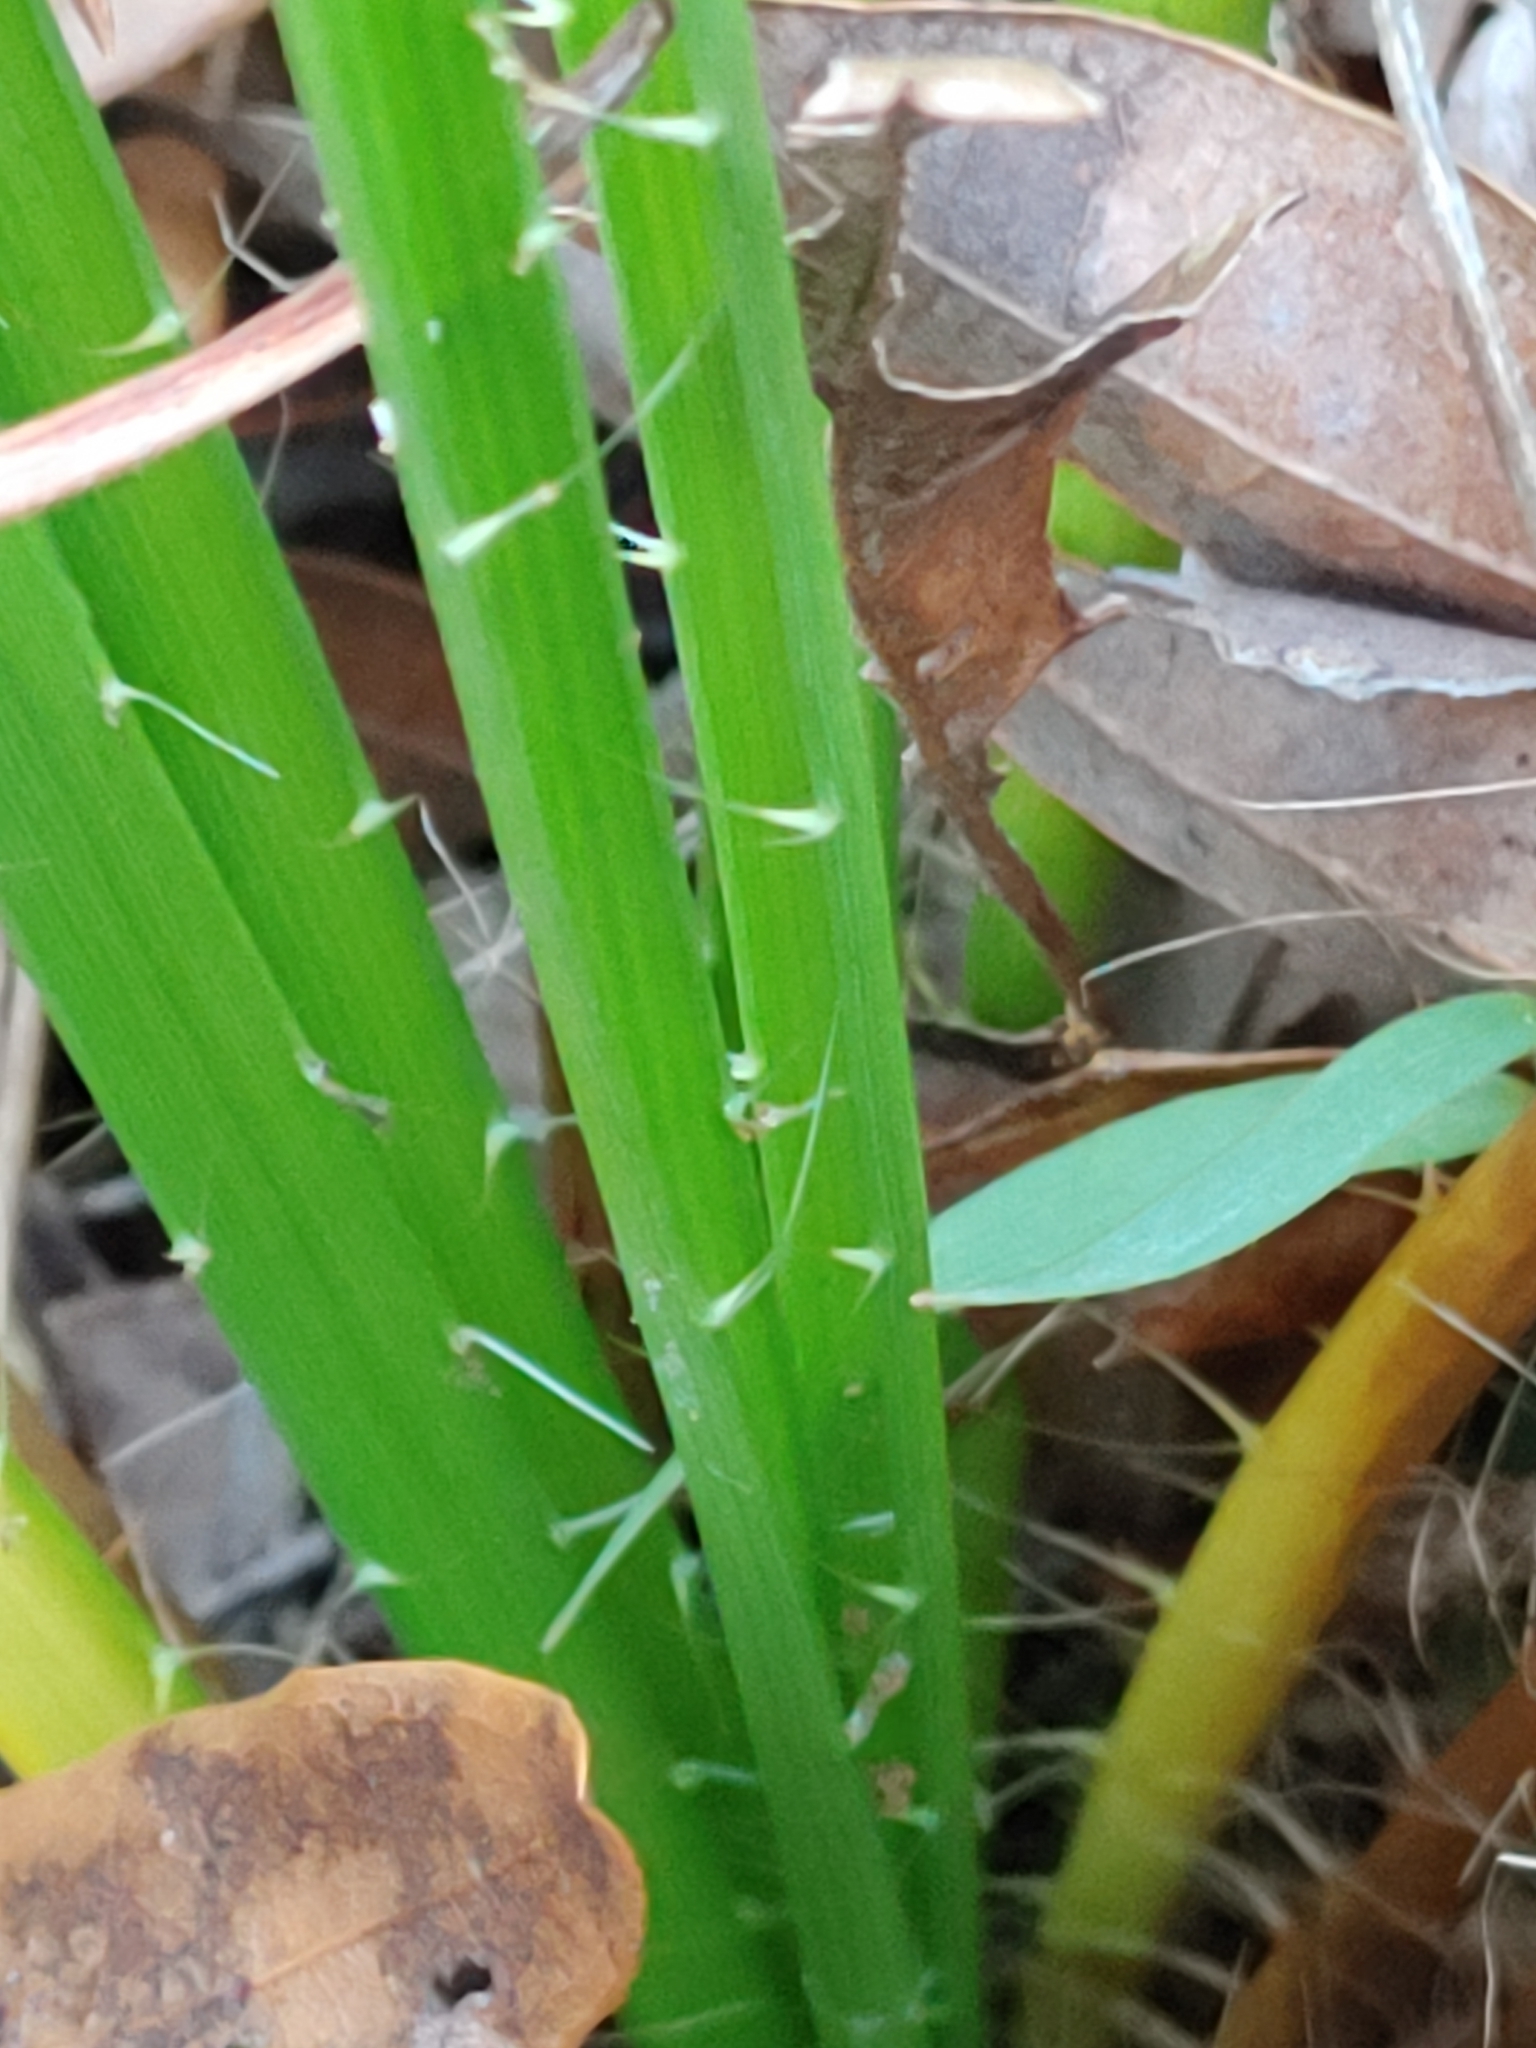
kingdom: Plantae
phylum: Tracheophyta
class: Magnoliopsida
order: Apiales
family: Apiaceae
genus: Eryngium
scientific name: Eryngium yuccifolium
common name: Button eryngo
